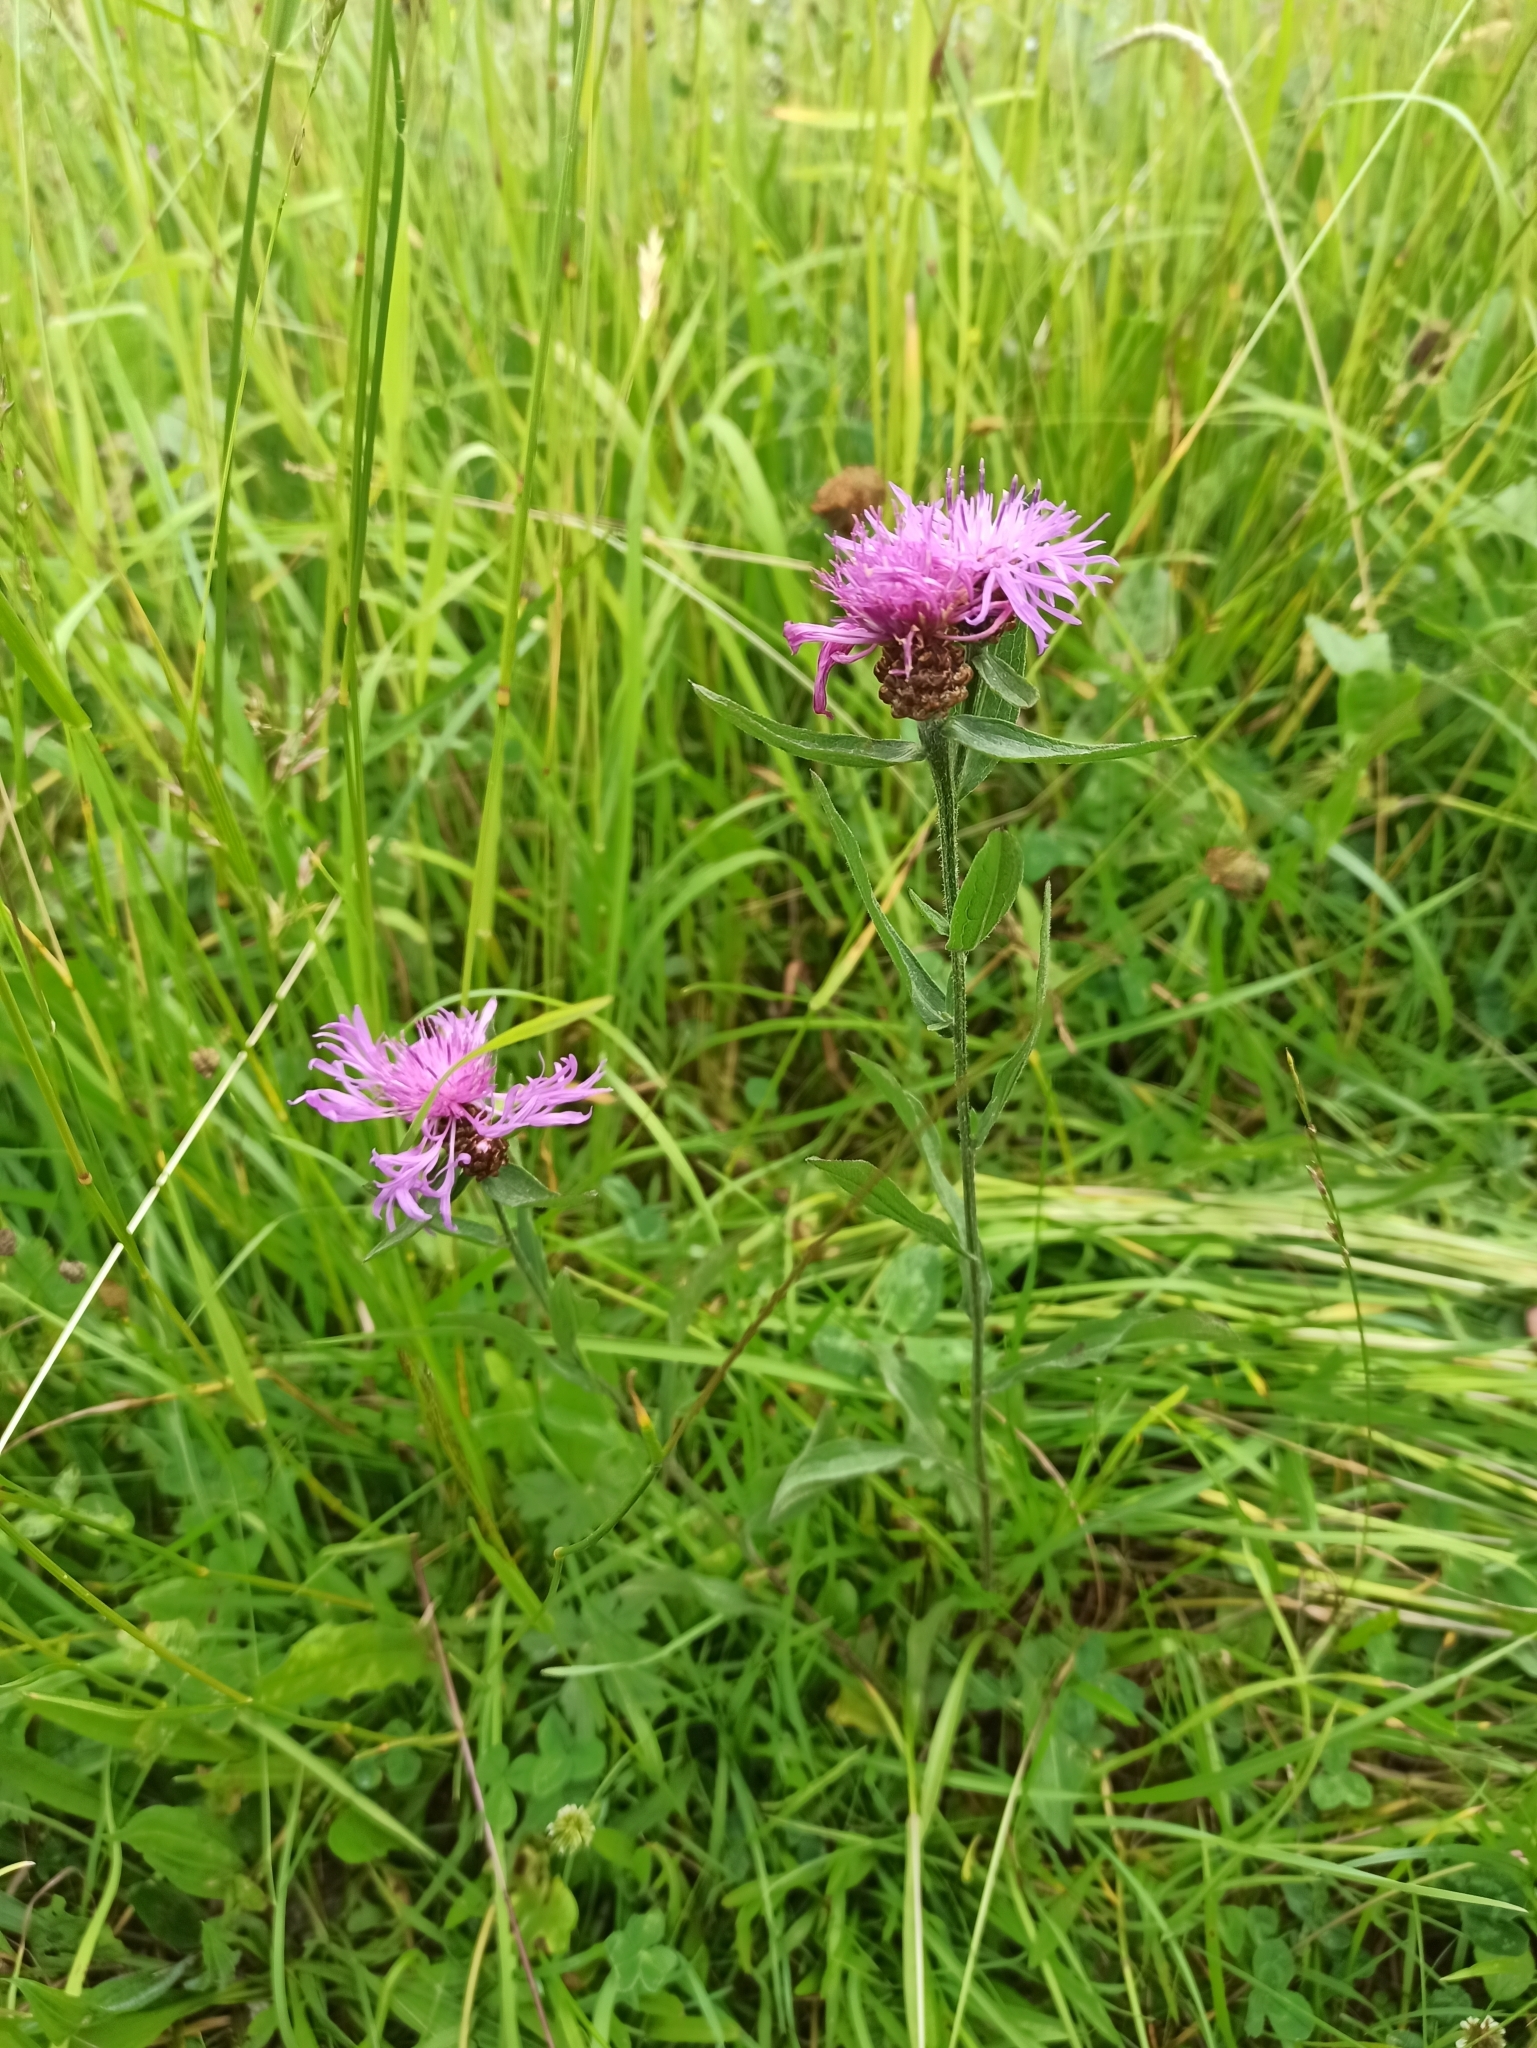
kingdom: Plantae
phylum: Tracheophyta
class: Magnoliopsida
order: Asterales
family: Asteraceae
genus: Centaurea
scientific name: Centaurea jacea
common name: Brown knapweed
